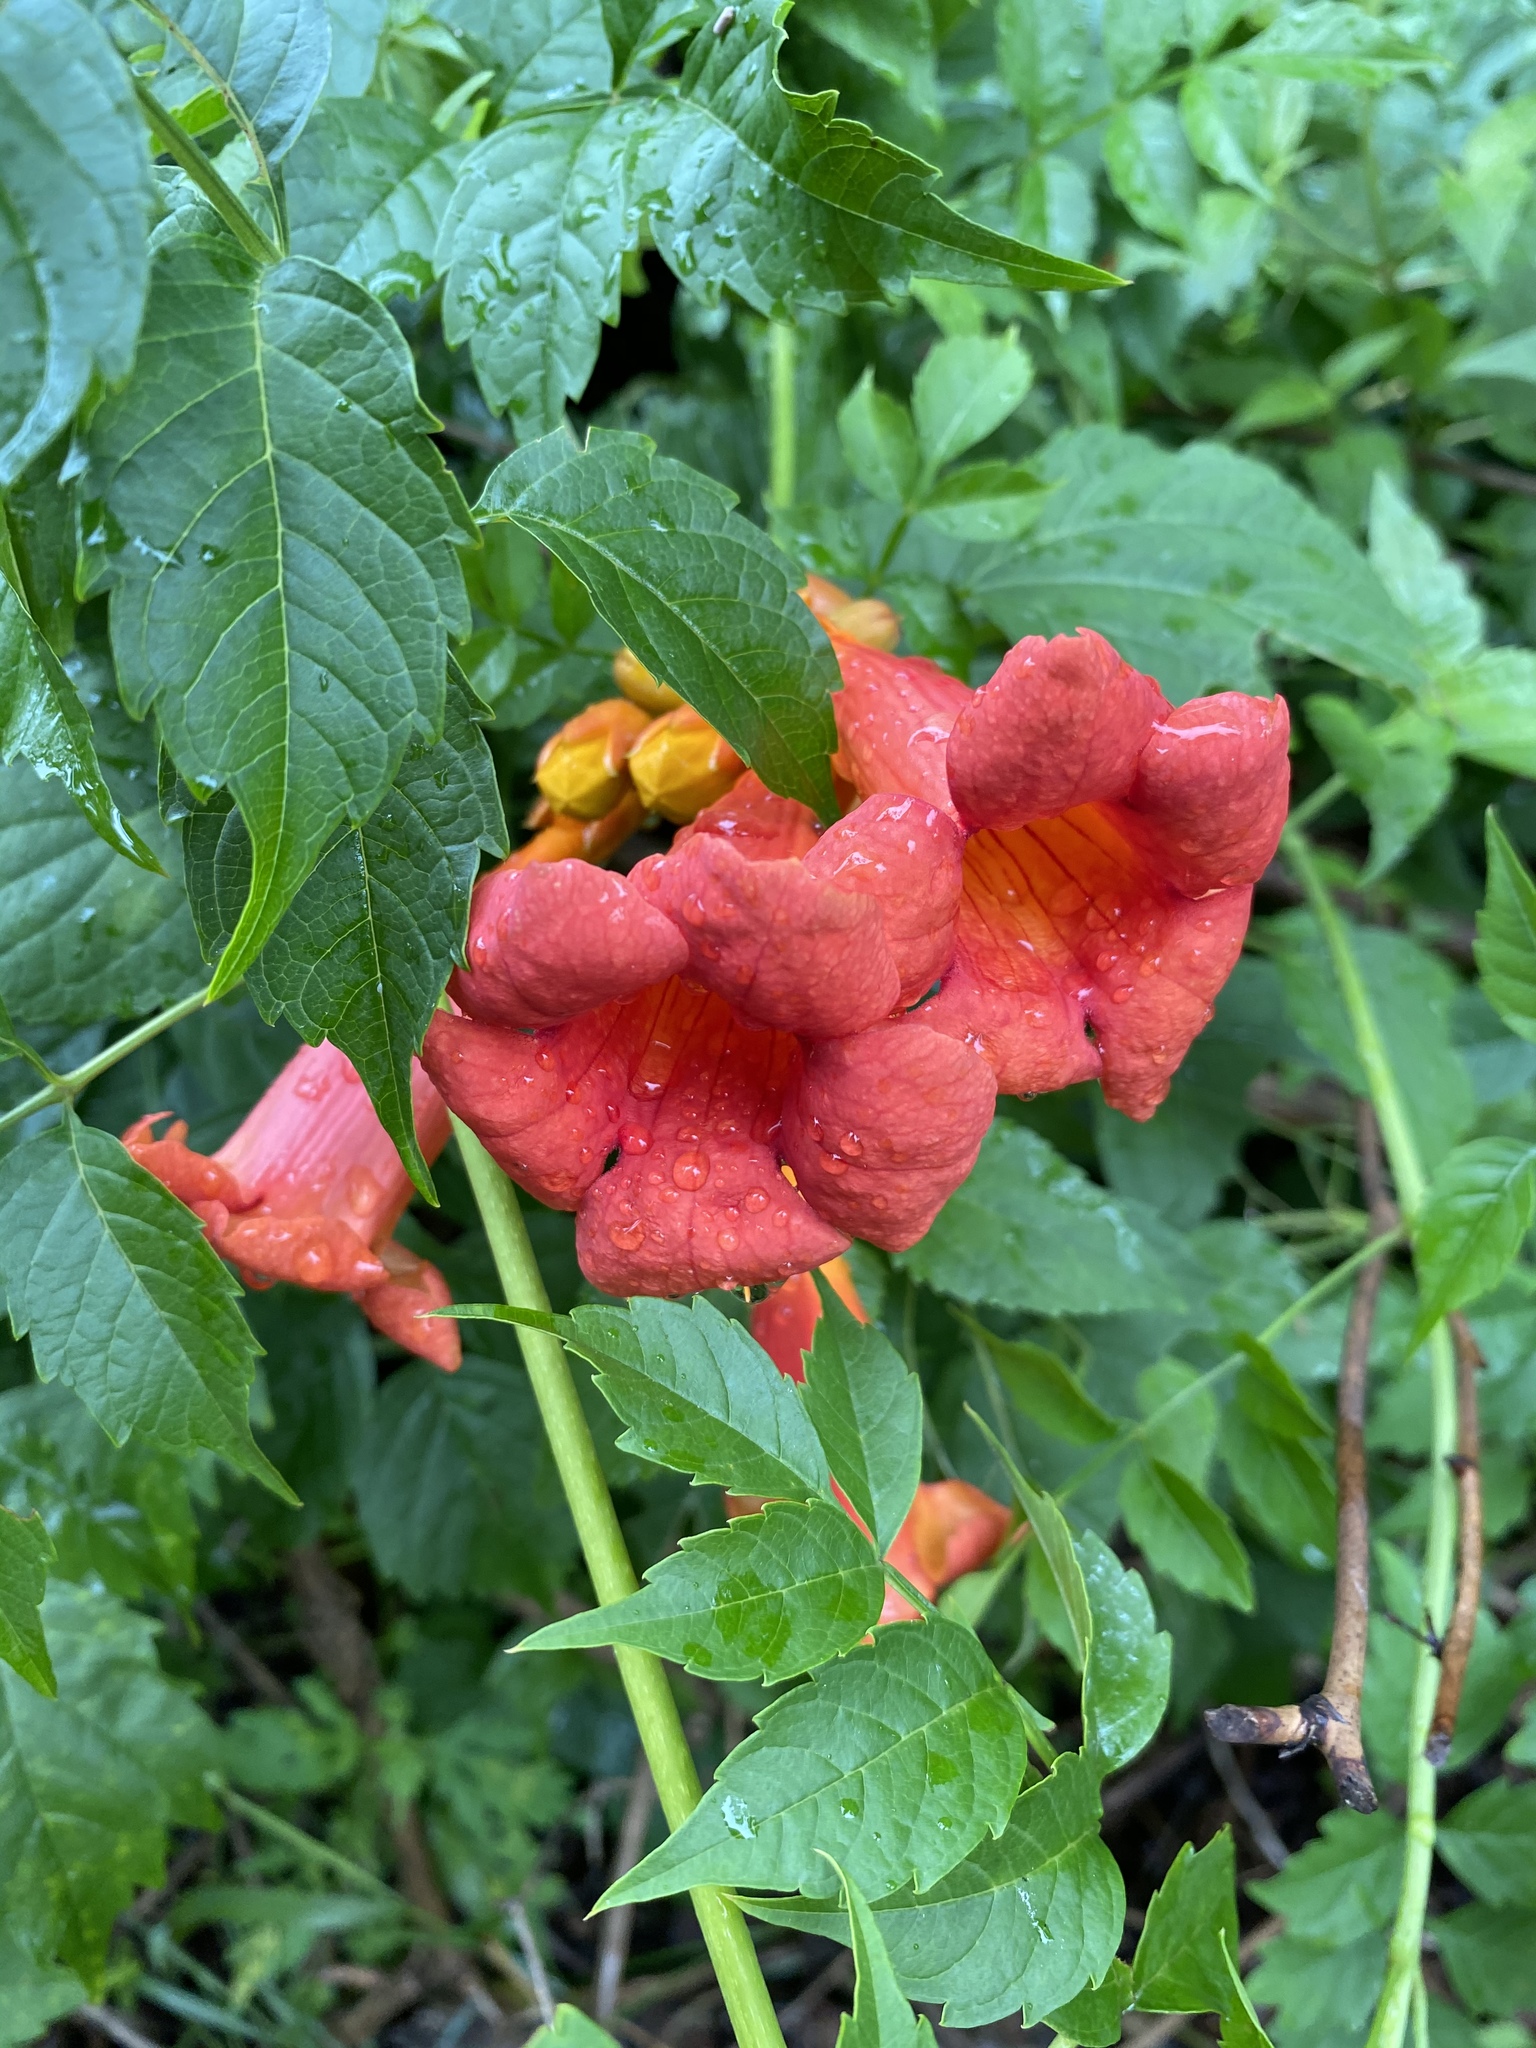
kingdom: Plantae
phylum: Tracheophyta
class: Magnoliopsida
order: Lamiales
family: Bignoniaceae
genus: Campsis
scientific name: Campsis radicans
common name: Trumpet-creeper
